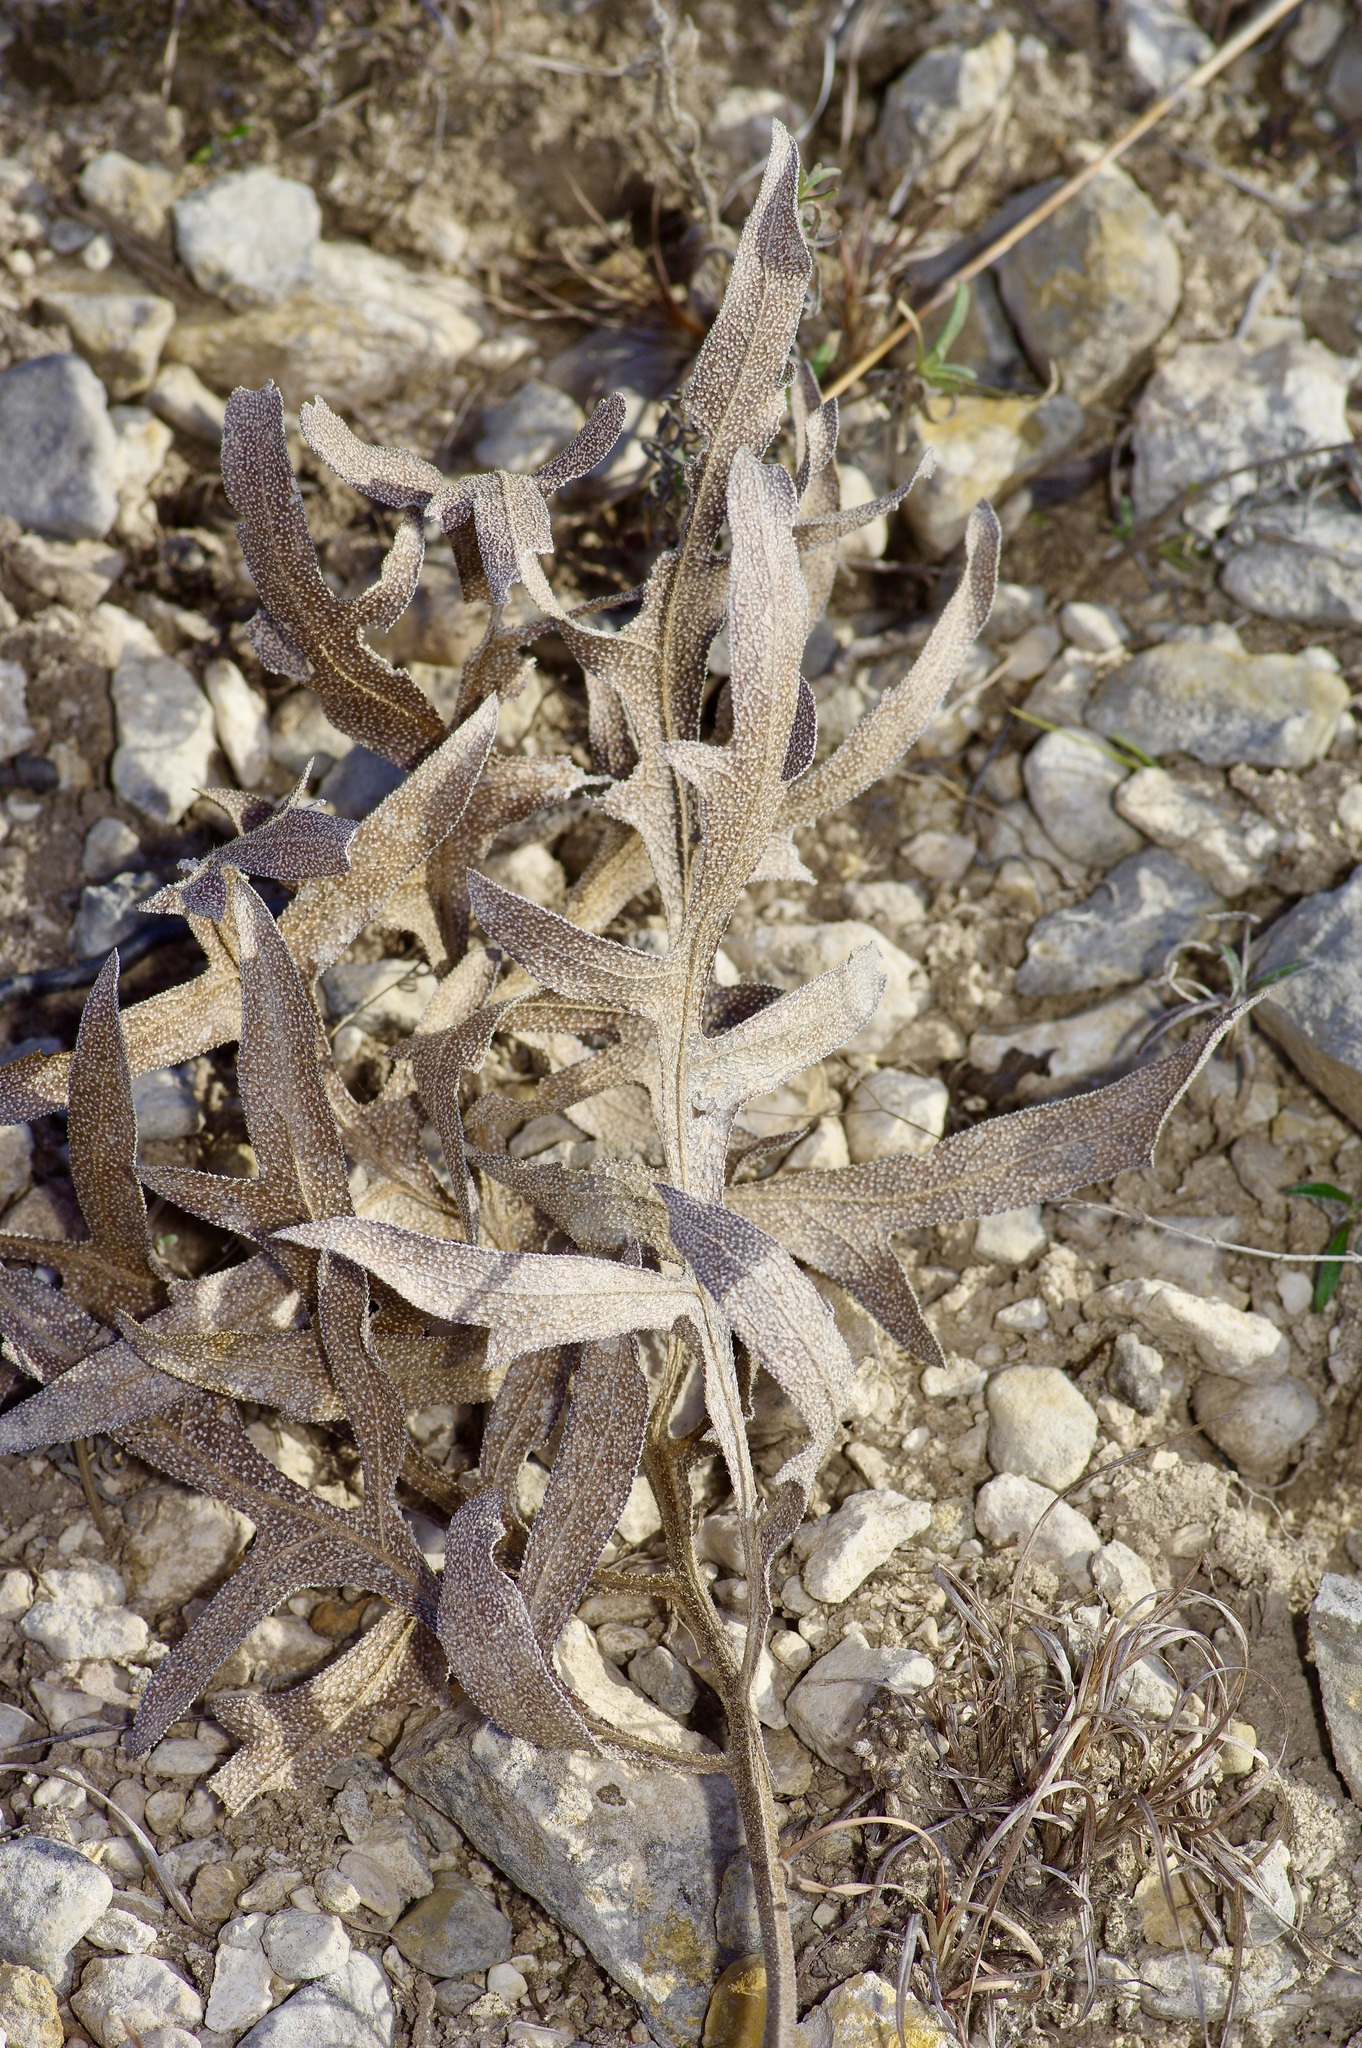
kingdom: Plantae
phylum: Tracheophyta
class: Magnoliopsida
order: Asterales
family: Asteraceae
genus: Silphium
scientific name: Silphium albiflorum
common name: White rosinweed
